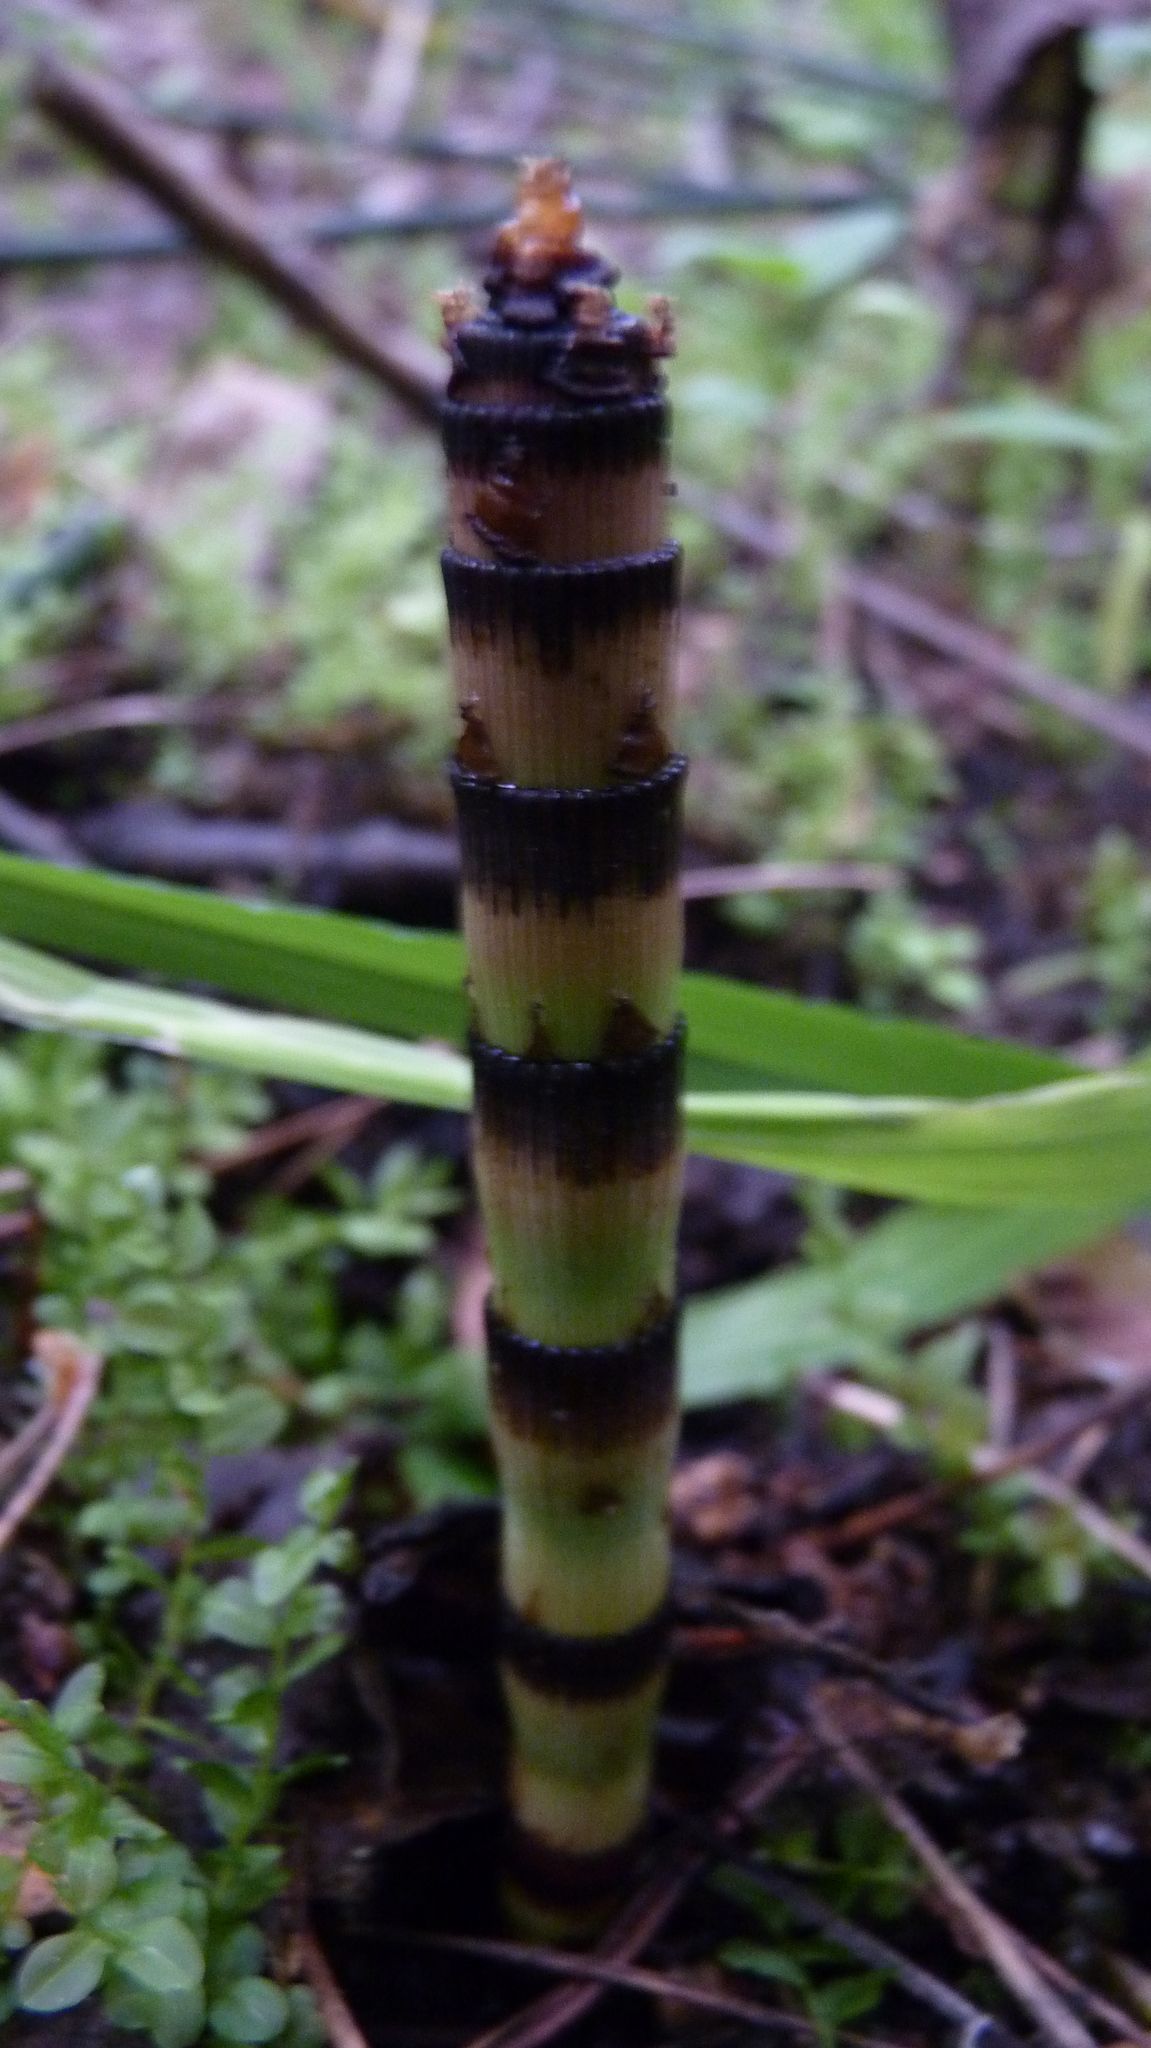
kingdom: Plantae
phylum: Tracheophyta
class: Polypodiopsida
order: Equisetales
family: Equisetaceae
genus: Equisetum
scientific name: Equisetum hyemale
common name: Rough horsetail
